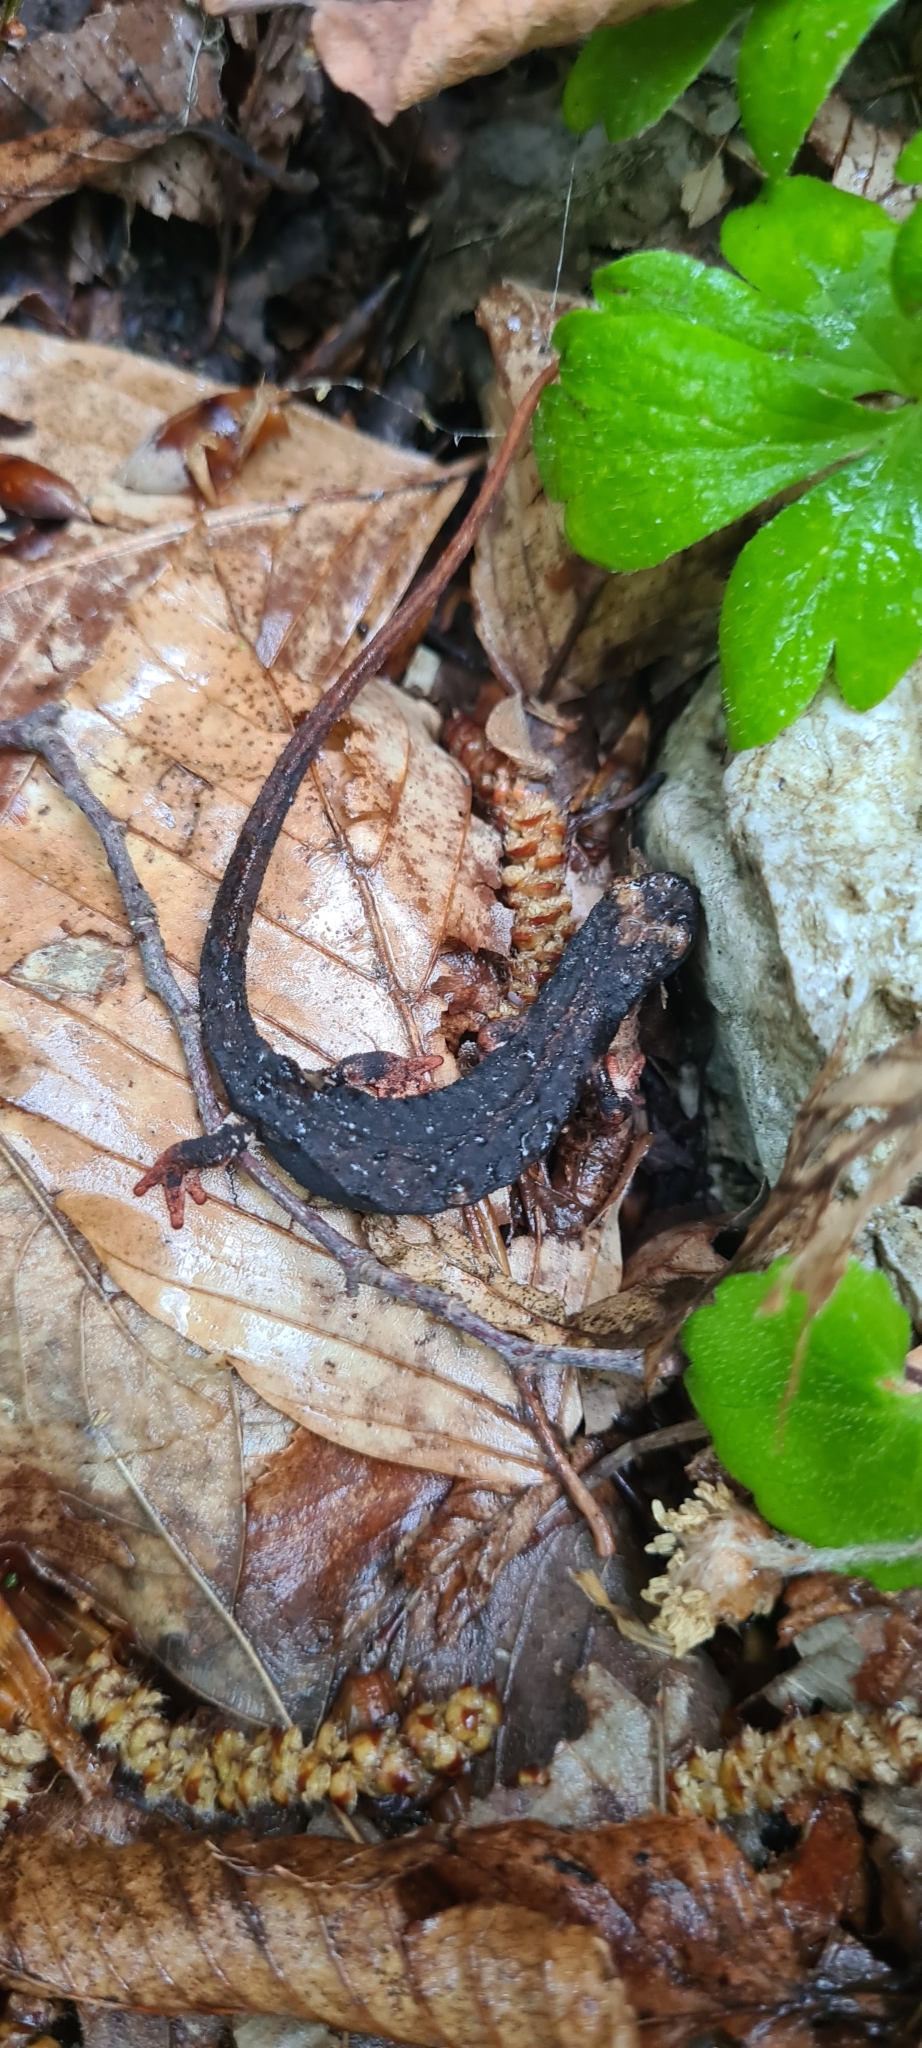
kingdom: Animalia
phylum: Chordata
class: Amphibia
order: Caudata
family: Salamandridae
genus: Salamandrina
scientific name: Salamandrina perspicillata
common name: Northern spectacled salamander
